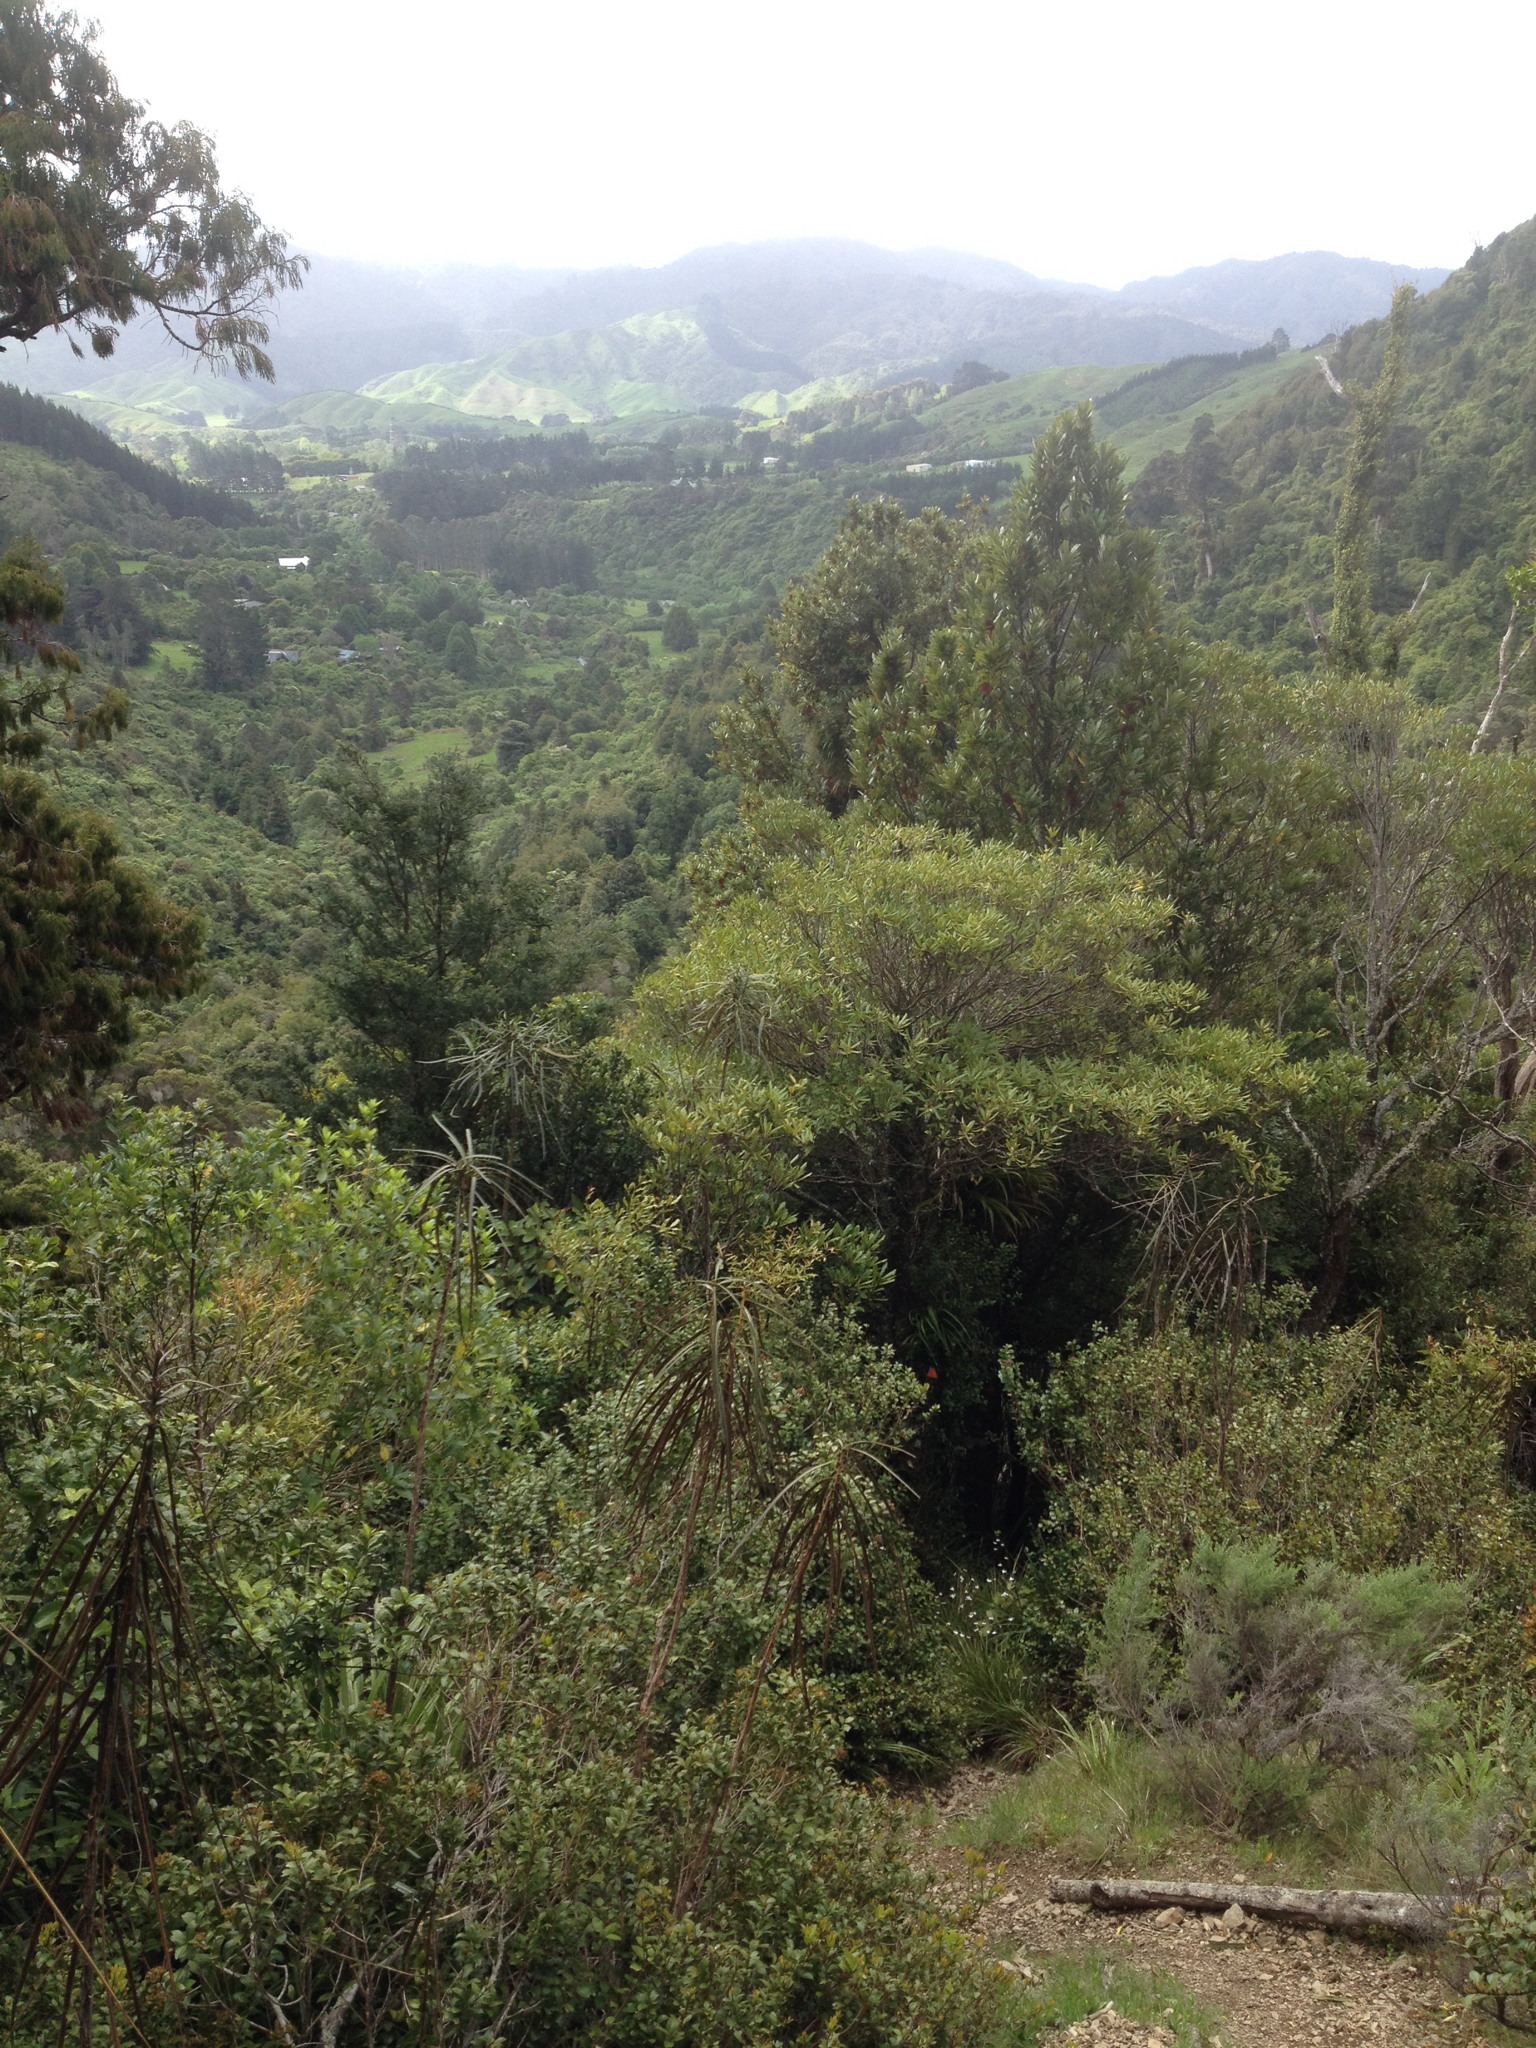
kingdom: Plantae
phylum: Tracheophyta
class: Magnoliopsida
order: Apiales
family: Araliaceae
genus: Pseudopanax
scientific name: Pseudopanax crassifolius
